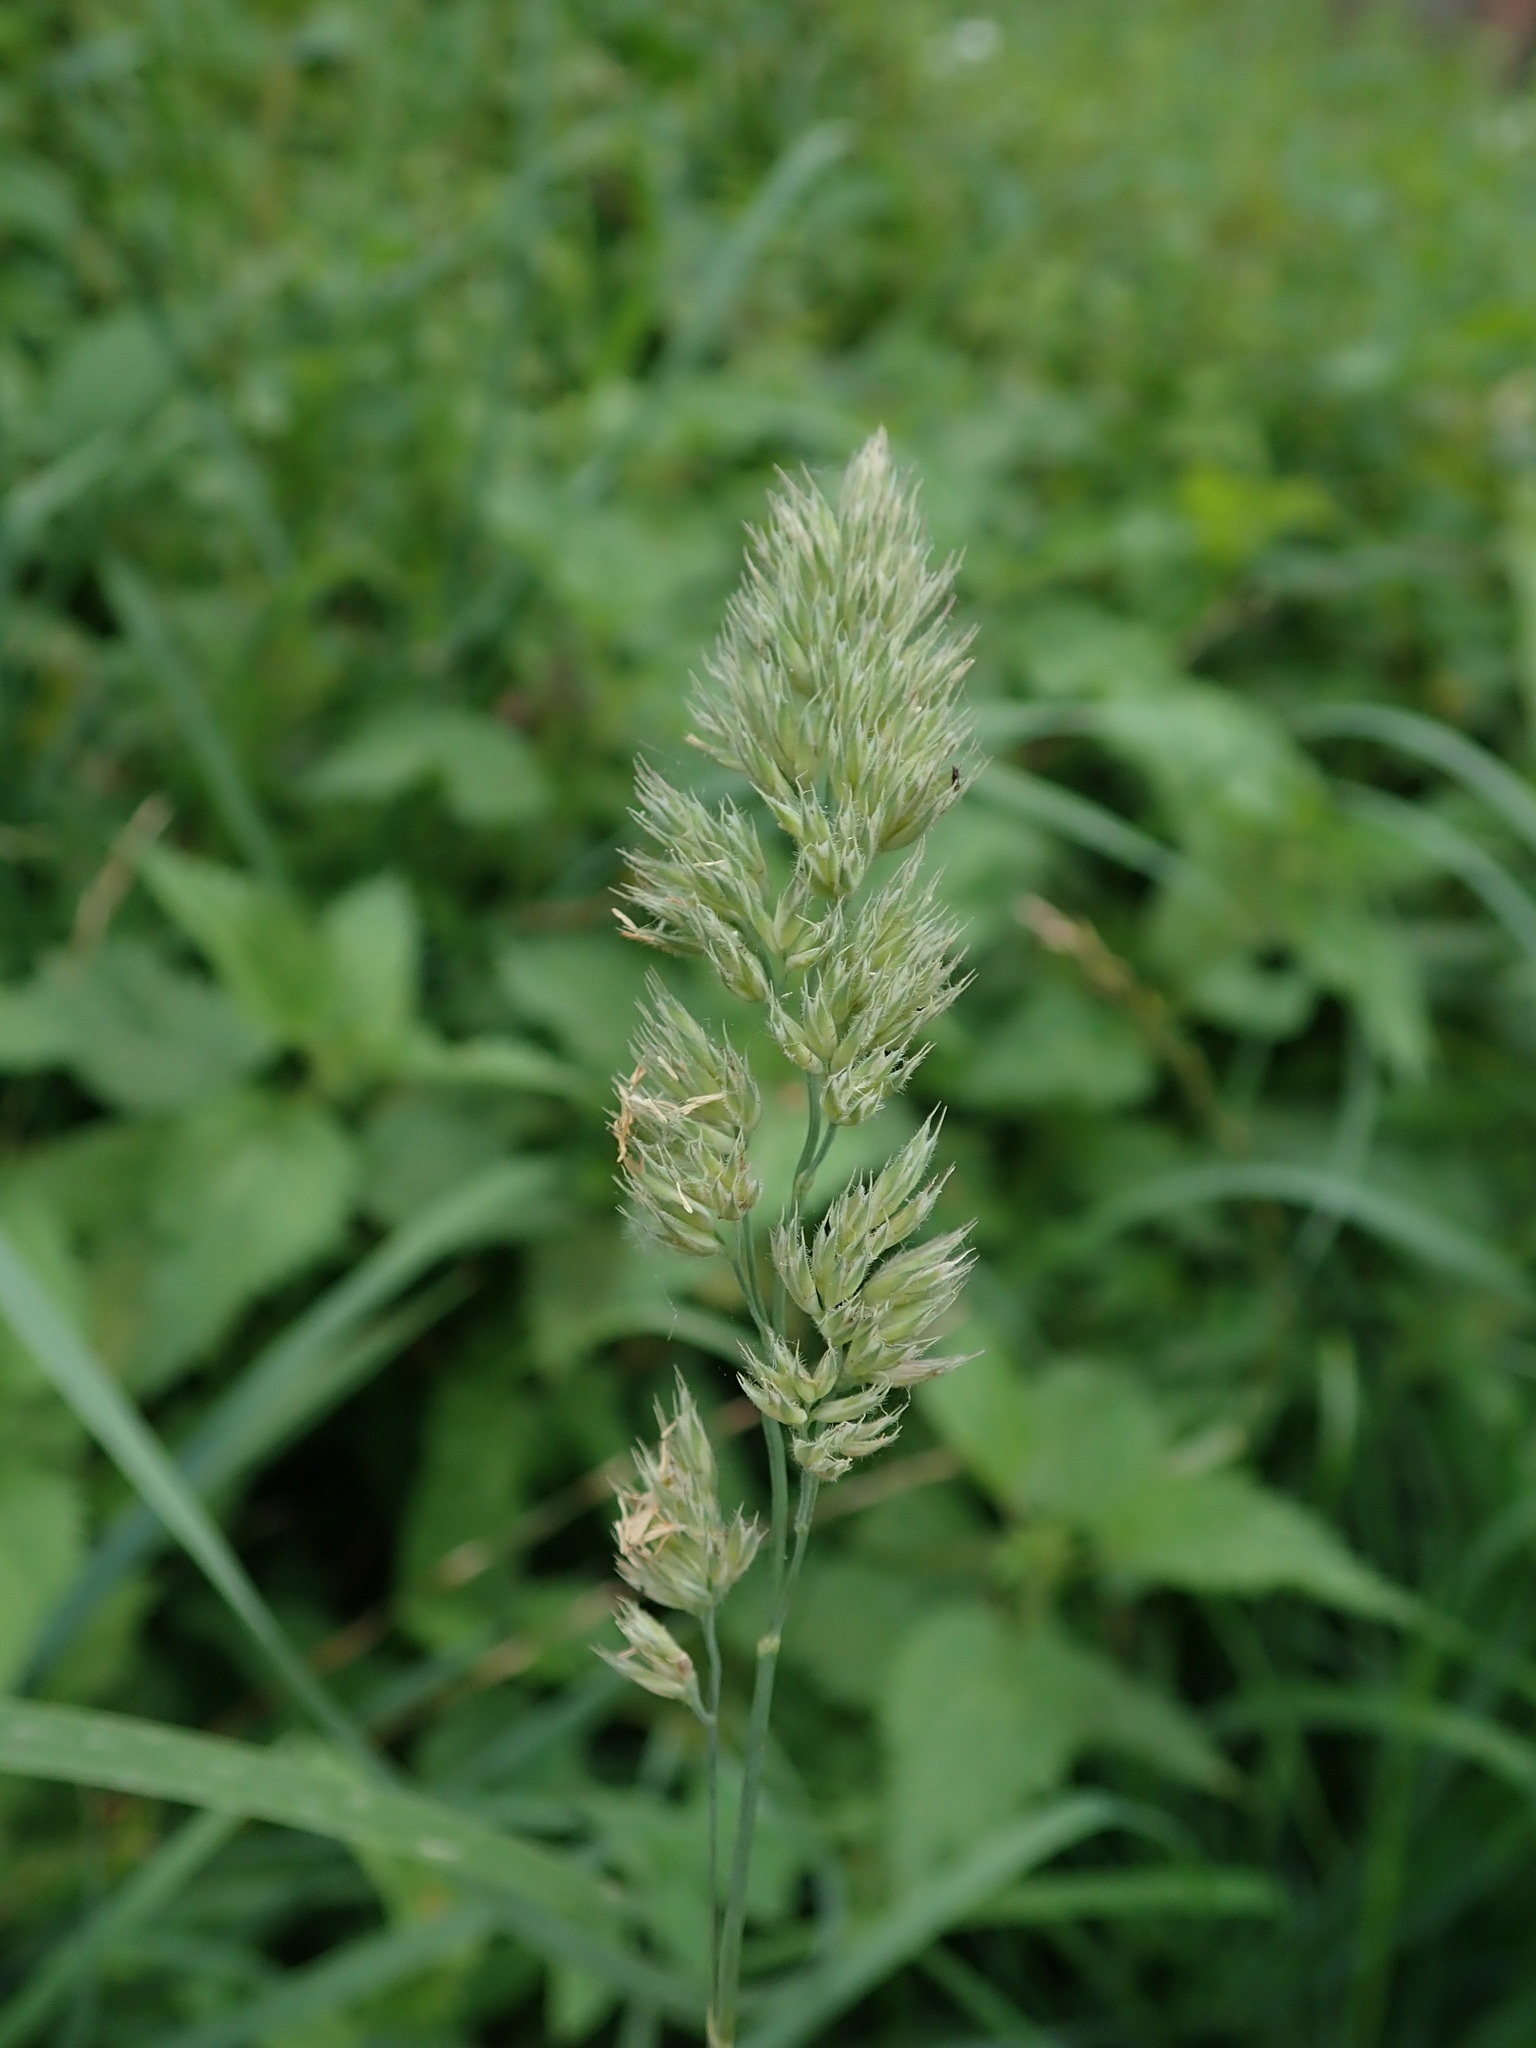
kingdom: Plantae
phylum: Tracheophyta
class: Liliopsida
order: Poales
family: Poaceae
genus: Dactylis
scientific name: Dactylis glomerata
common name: Orchardgrass
